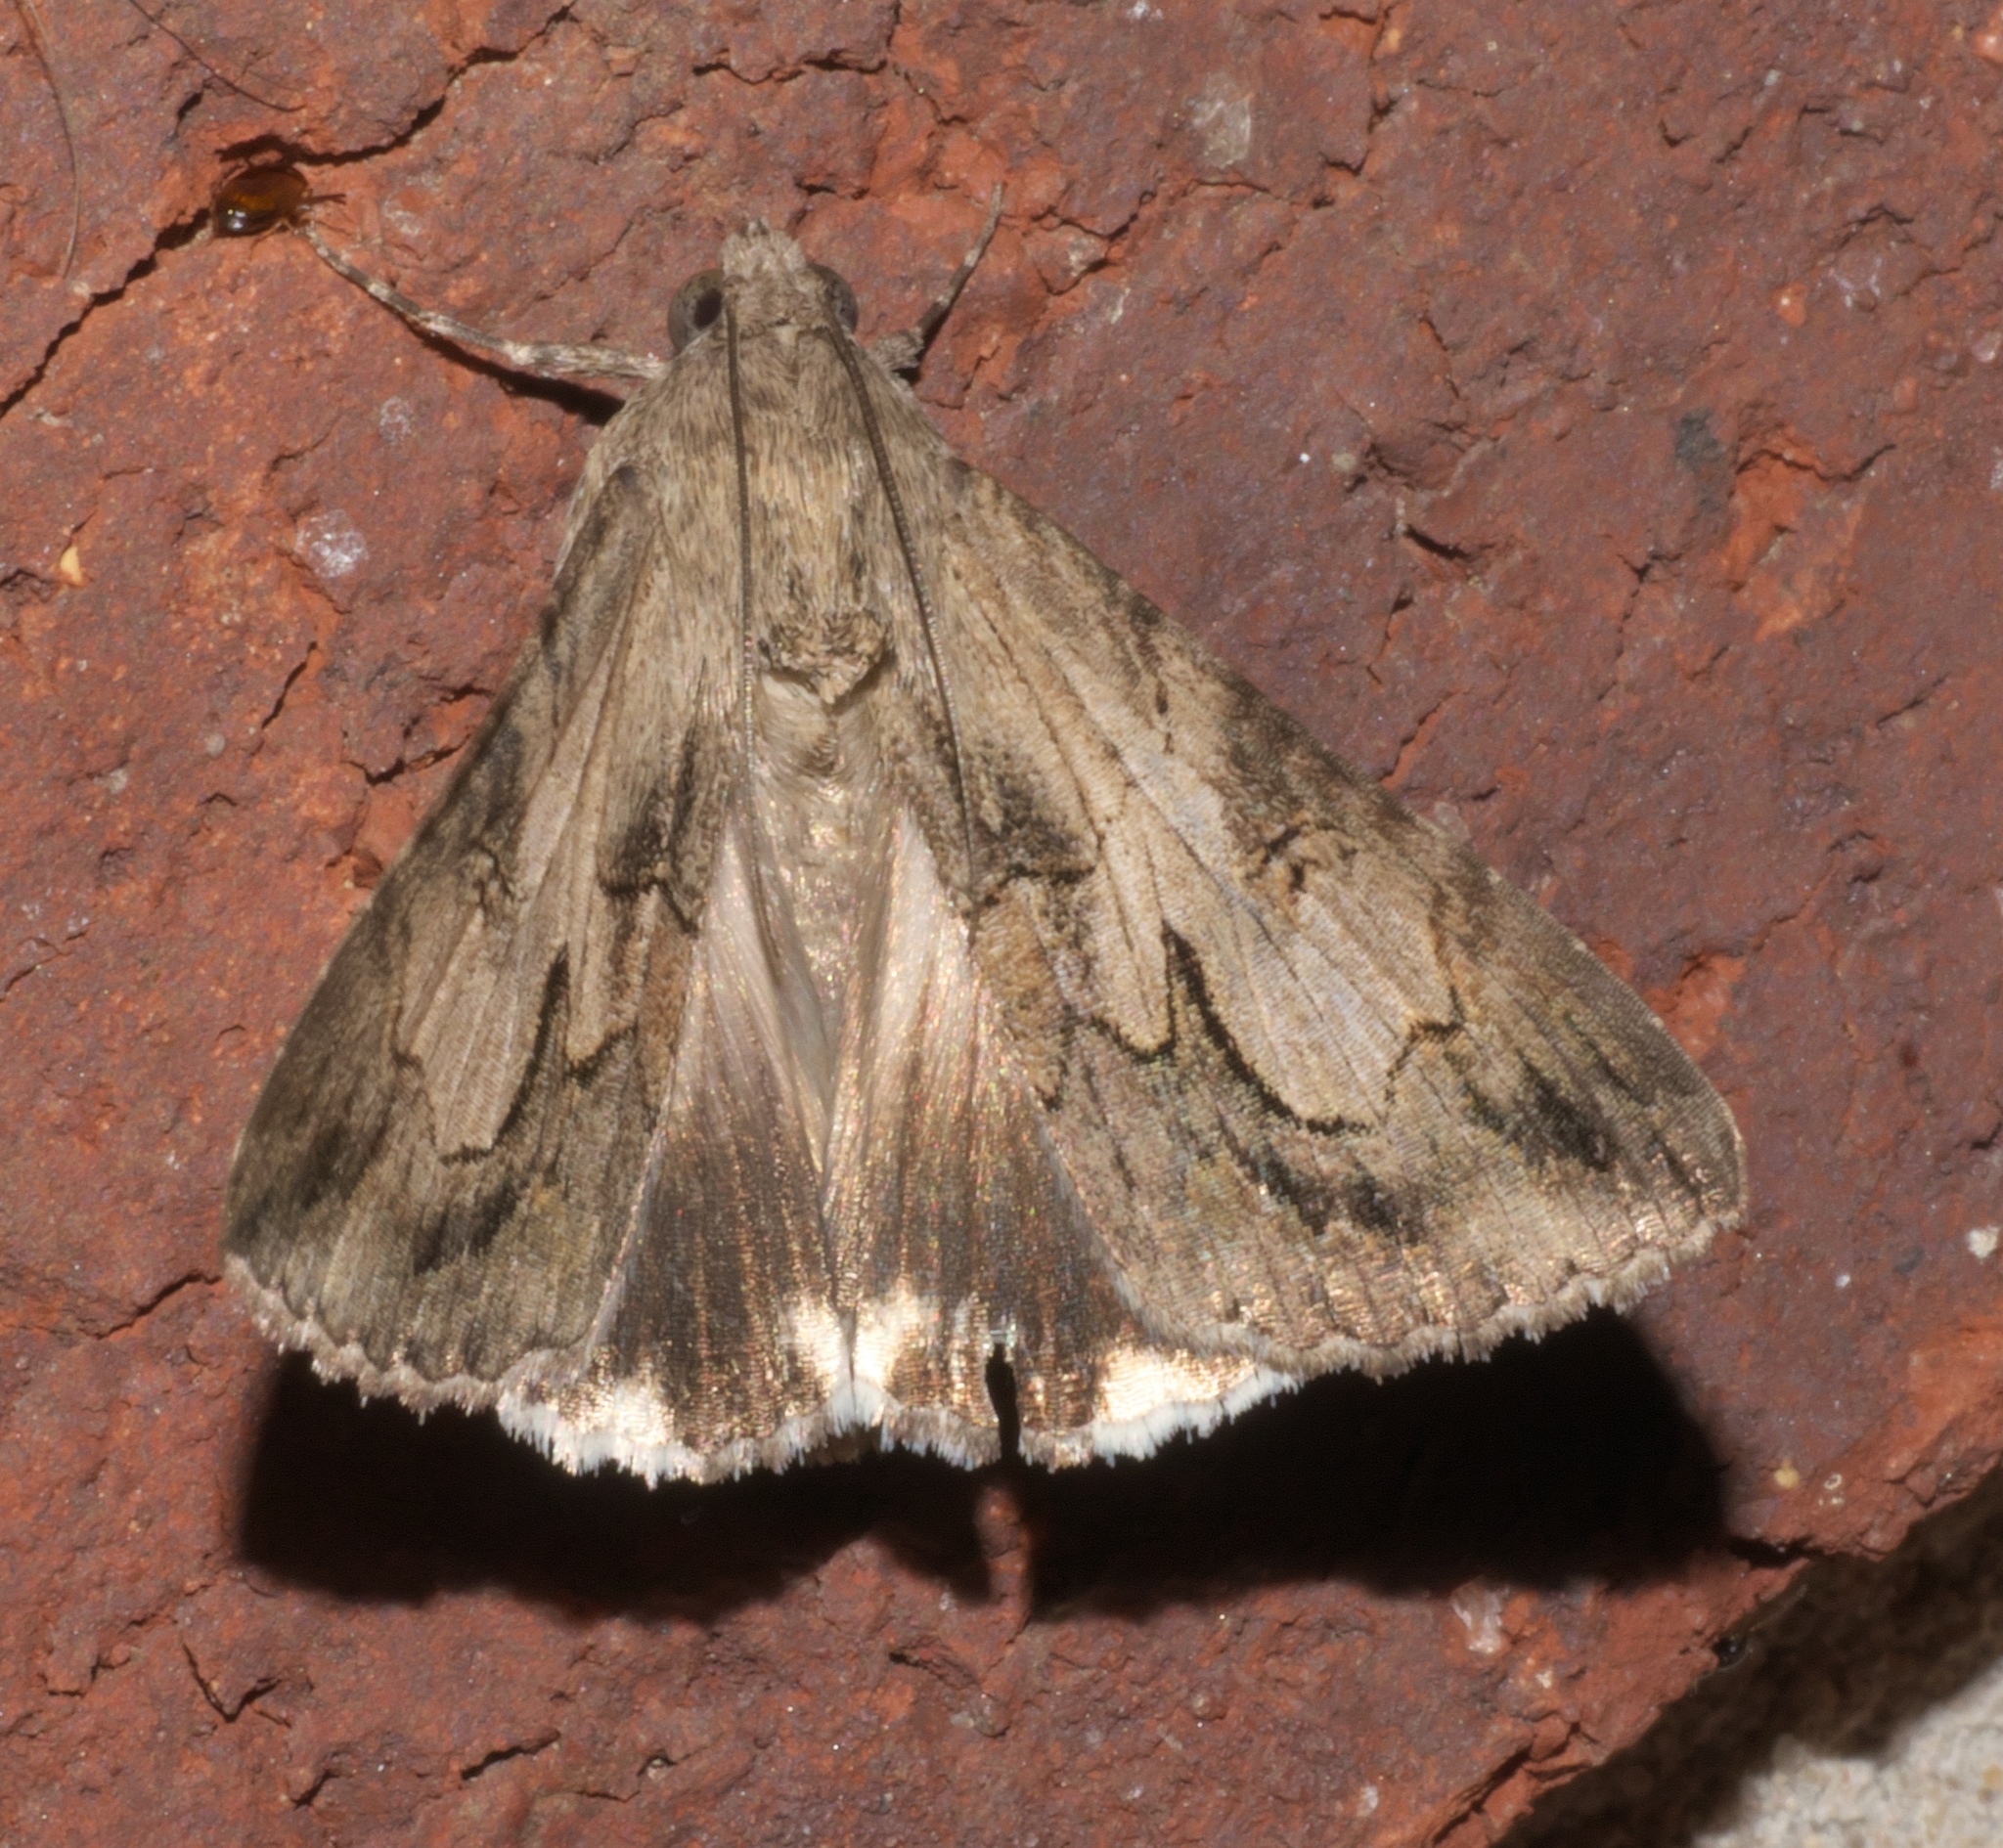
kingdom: Animalia
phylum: Arthropoda
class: Insecta
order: Lepidoptera
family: Erebidae
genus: Melipotis
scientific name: Melipotis jucunda
